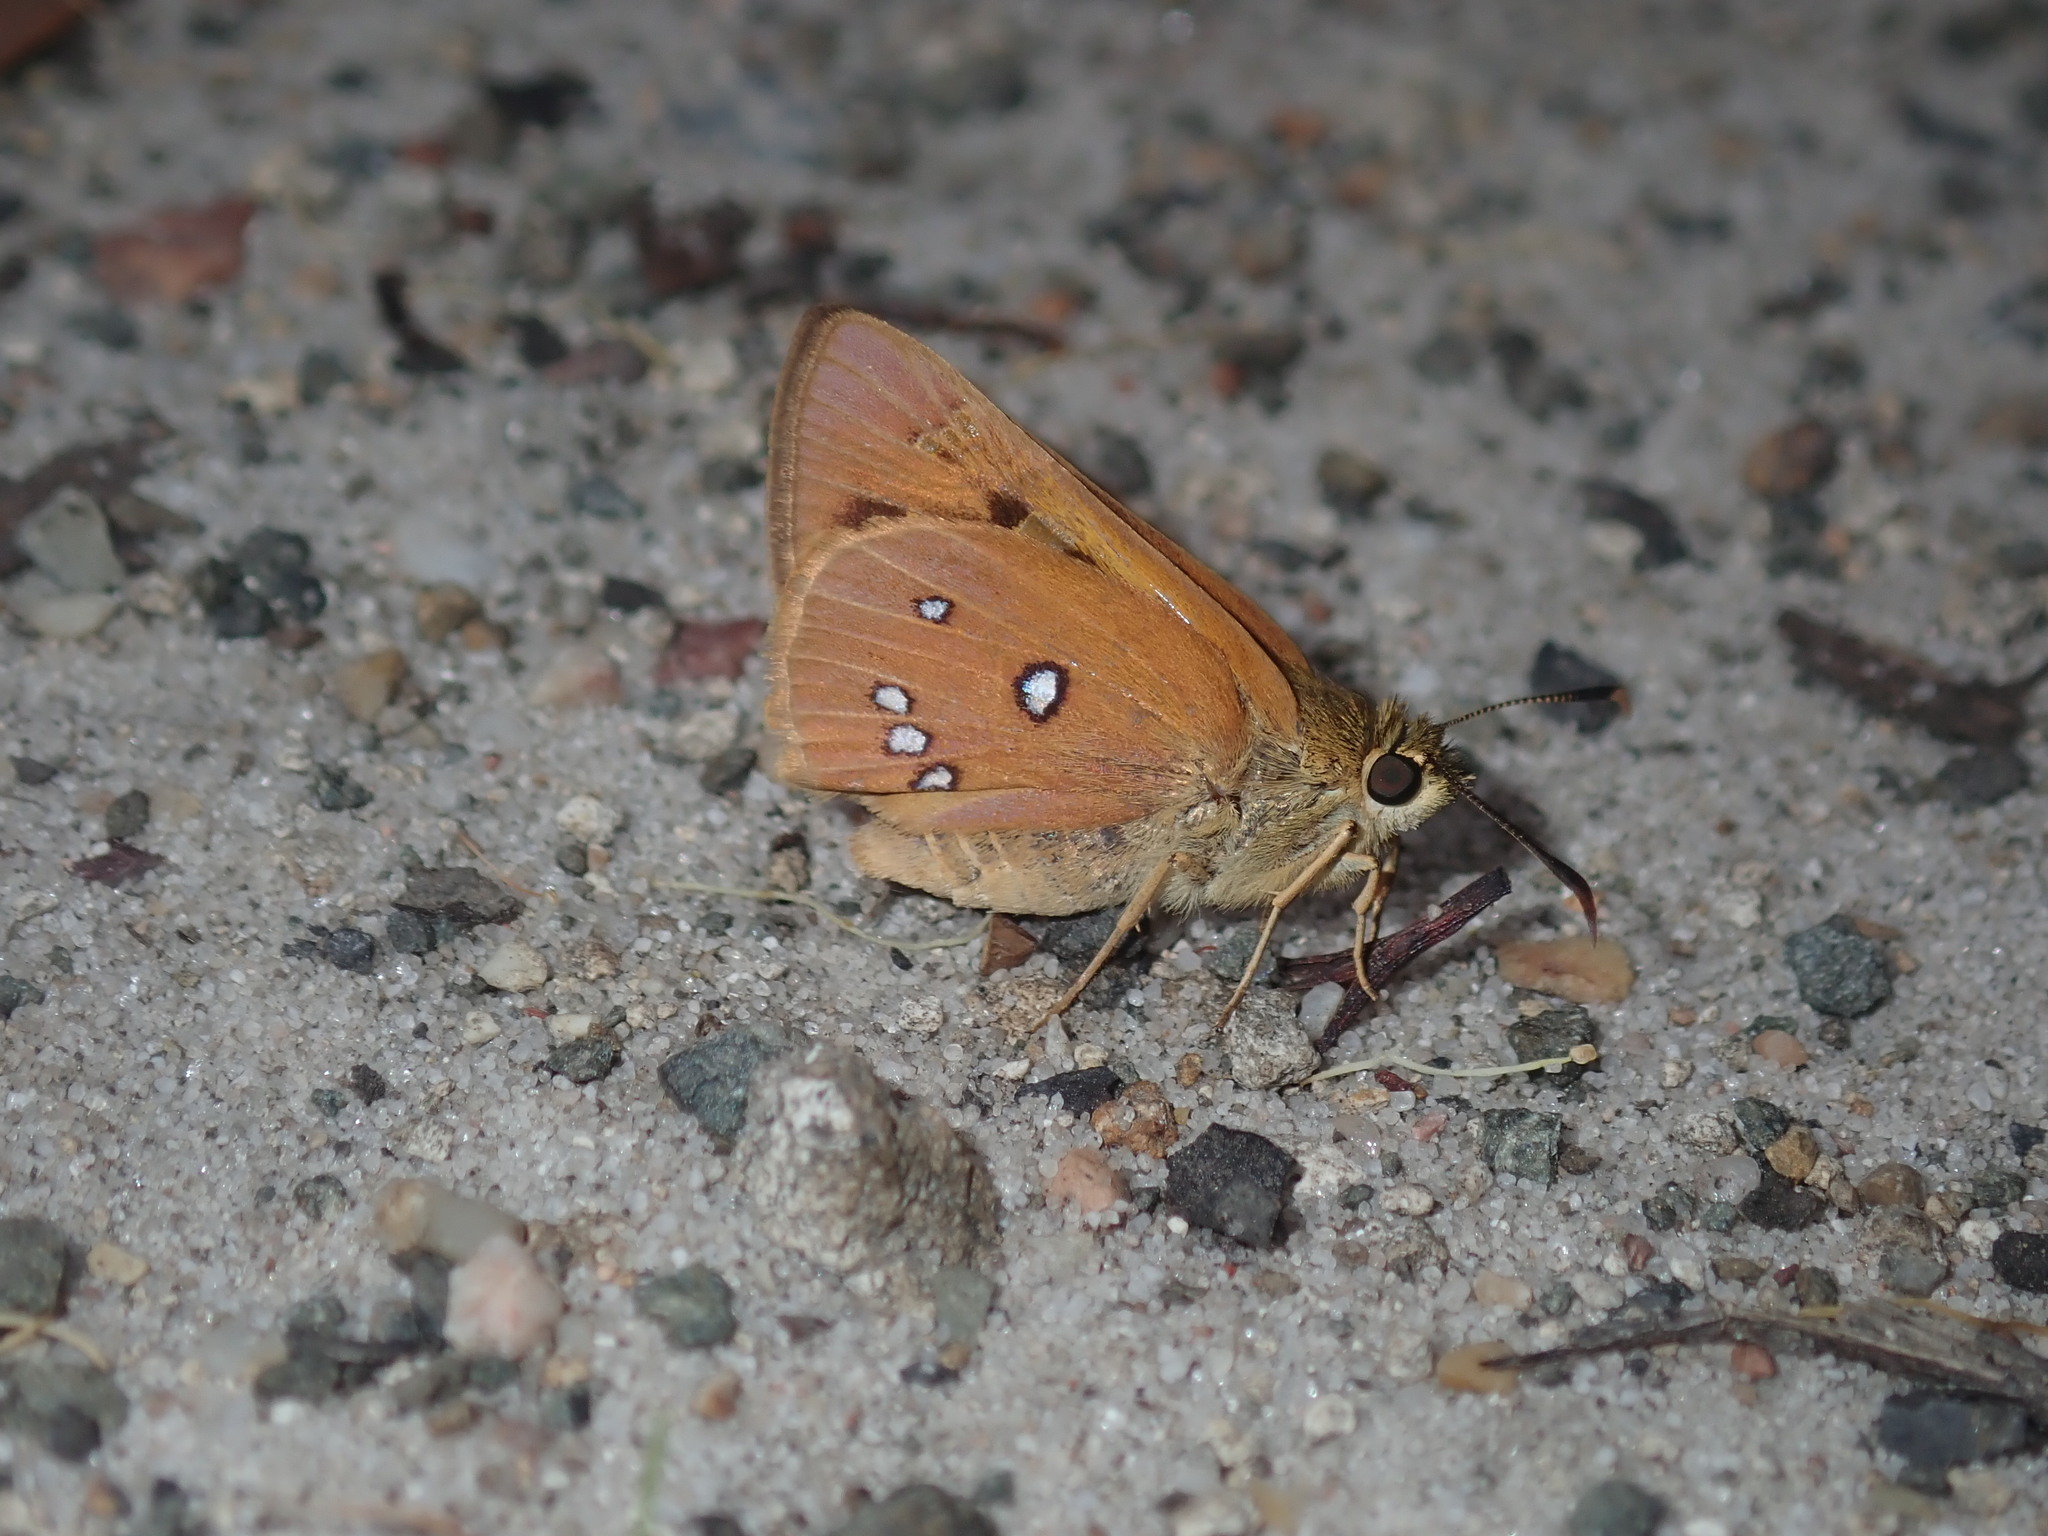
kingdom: Animalia
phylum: Arthropoda
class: Insecta
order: Lepidoptera
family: Hesperiidae
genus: Trapezites
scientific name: Trapezites eliena
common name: Eliena skipper
